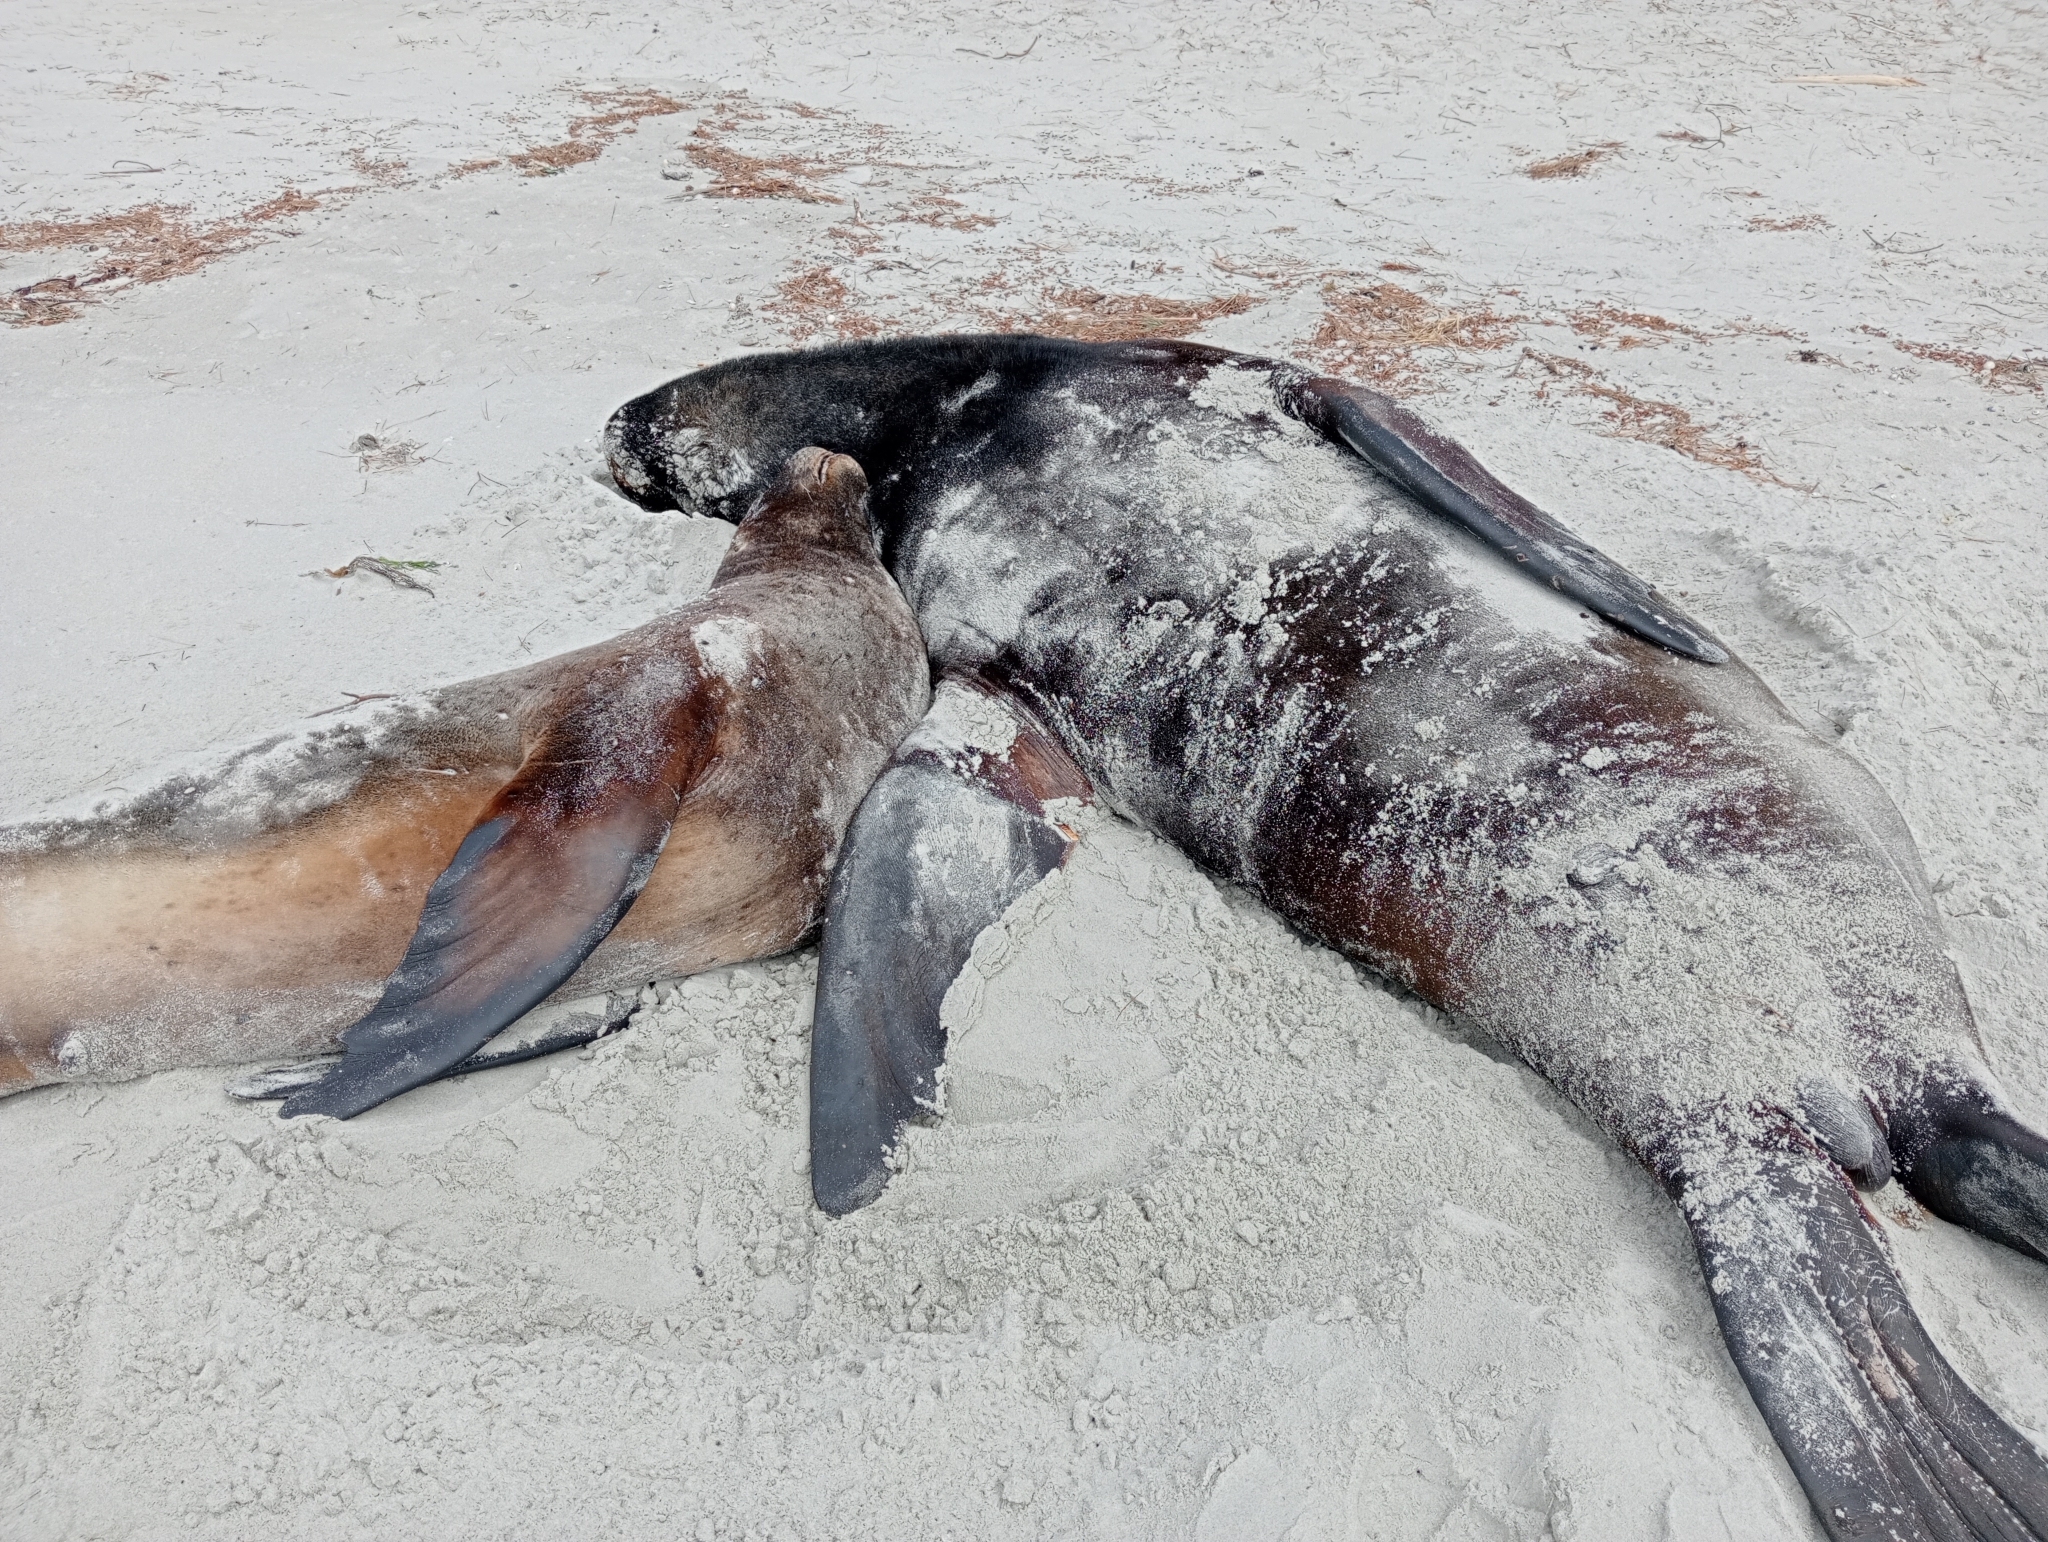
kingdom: Animalia
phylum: Chordata
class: Mammalia
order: Carnivora
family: Otariidae
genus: Phocarctos
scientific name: Phocarctos hookeri
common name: New zealand sea lion
